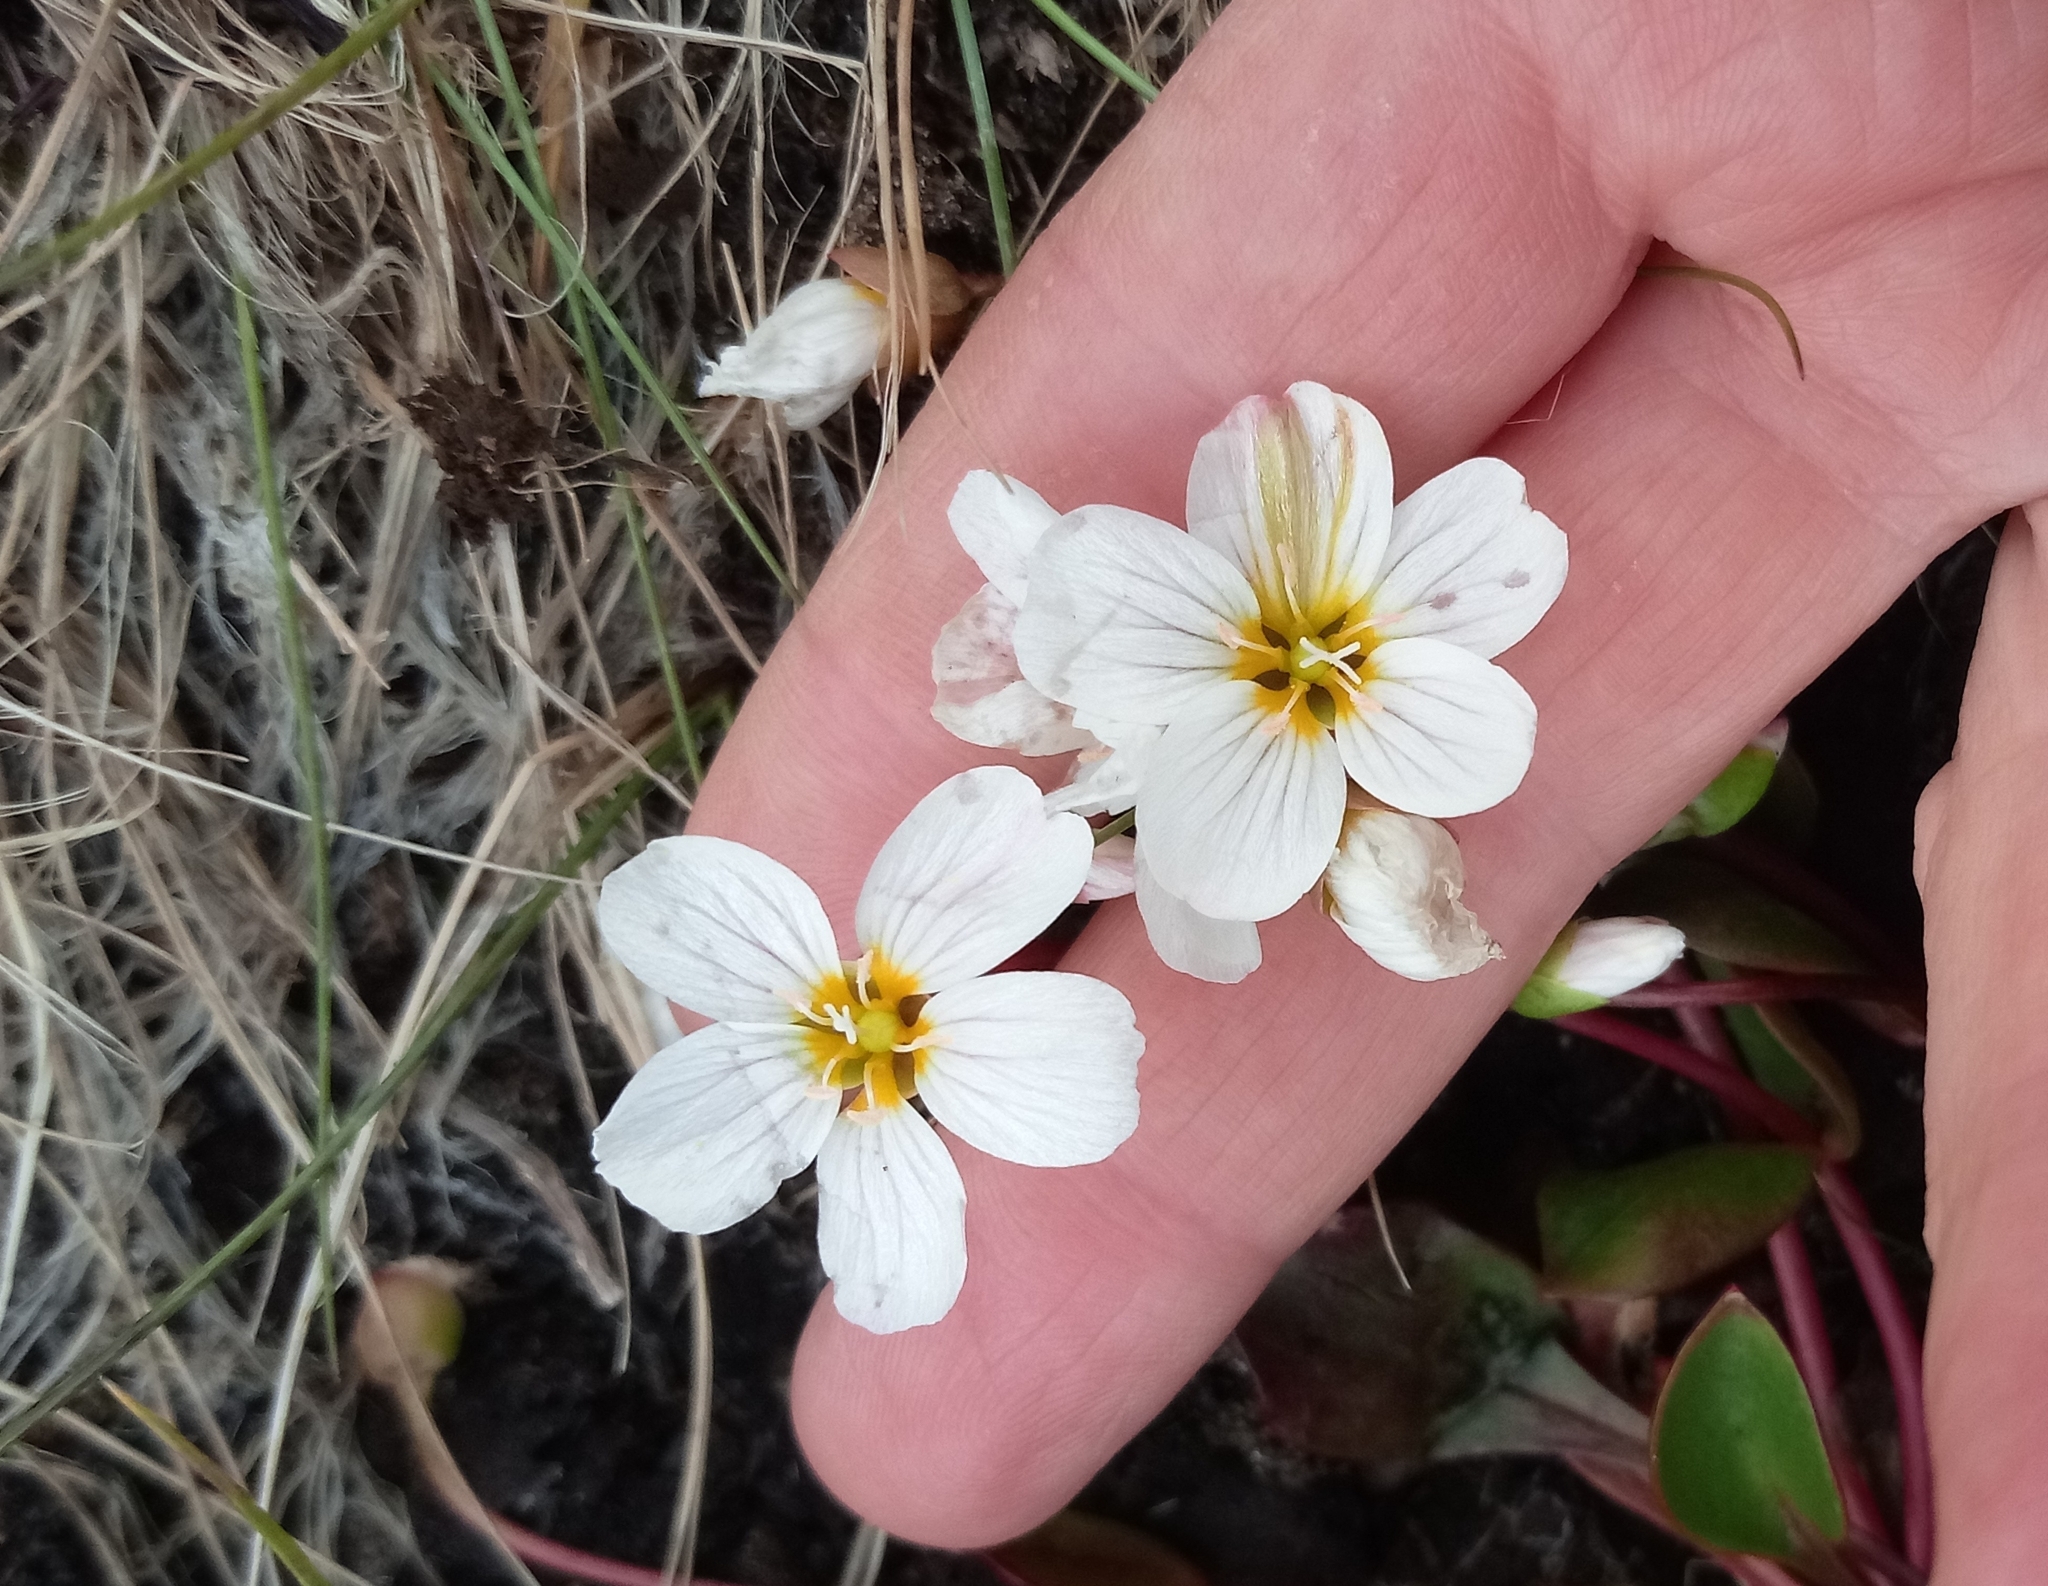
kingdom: Plantae
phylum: Tracheophyta
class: Magnoliopsida
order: Caryophyllales
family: Montiaceae
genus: Claytonia
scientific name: Claytonia joanneana
